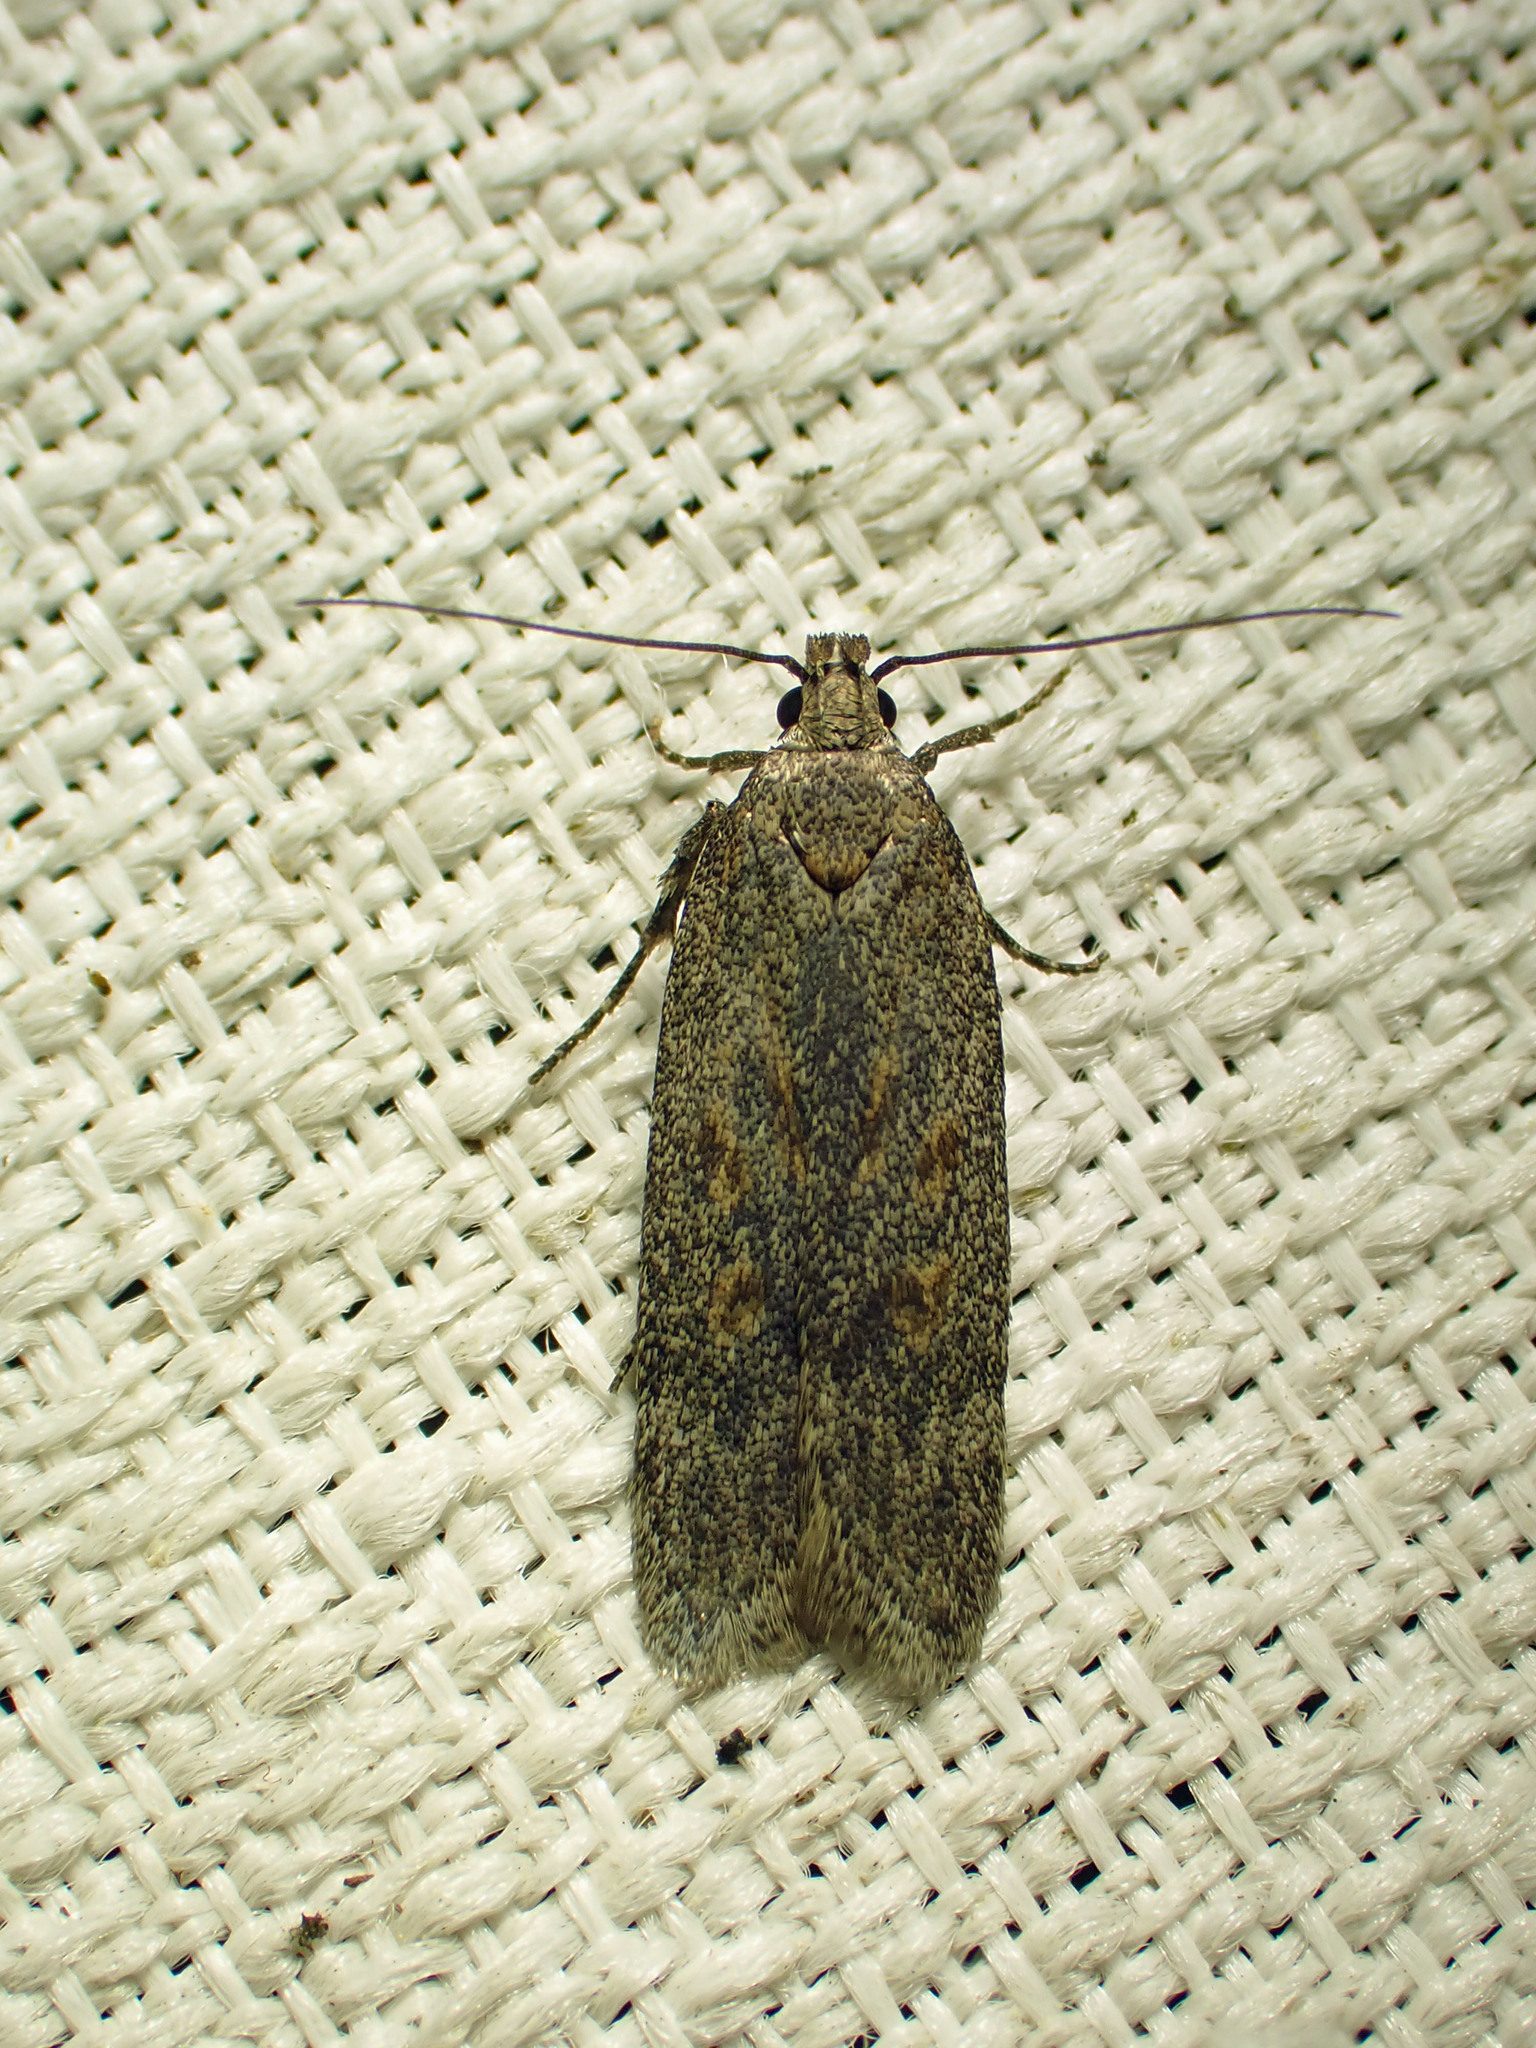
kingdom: Animalia
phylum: Arthropoda
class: Insecta
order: Lepidoptera
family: Gelechiidae
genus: Filatima
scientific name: Filatima abactella
